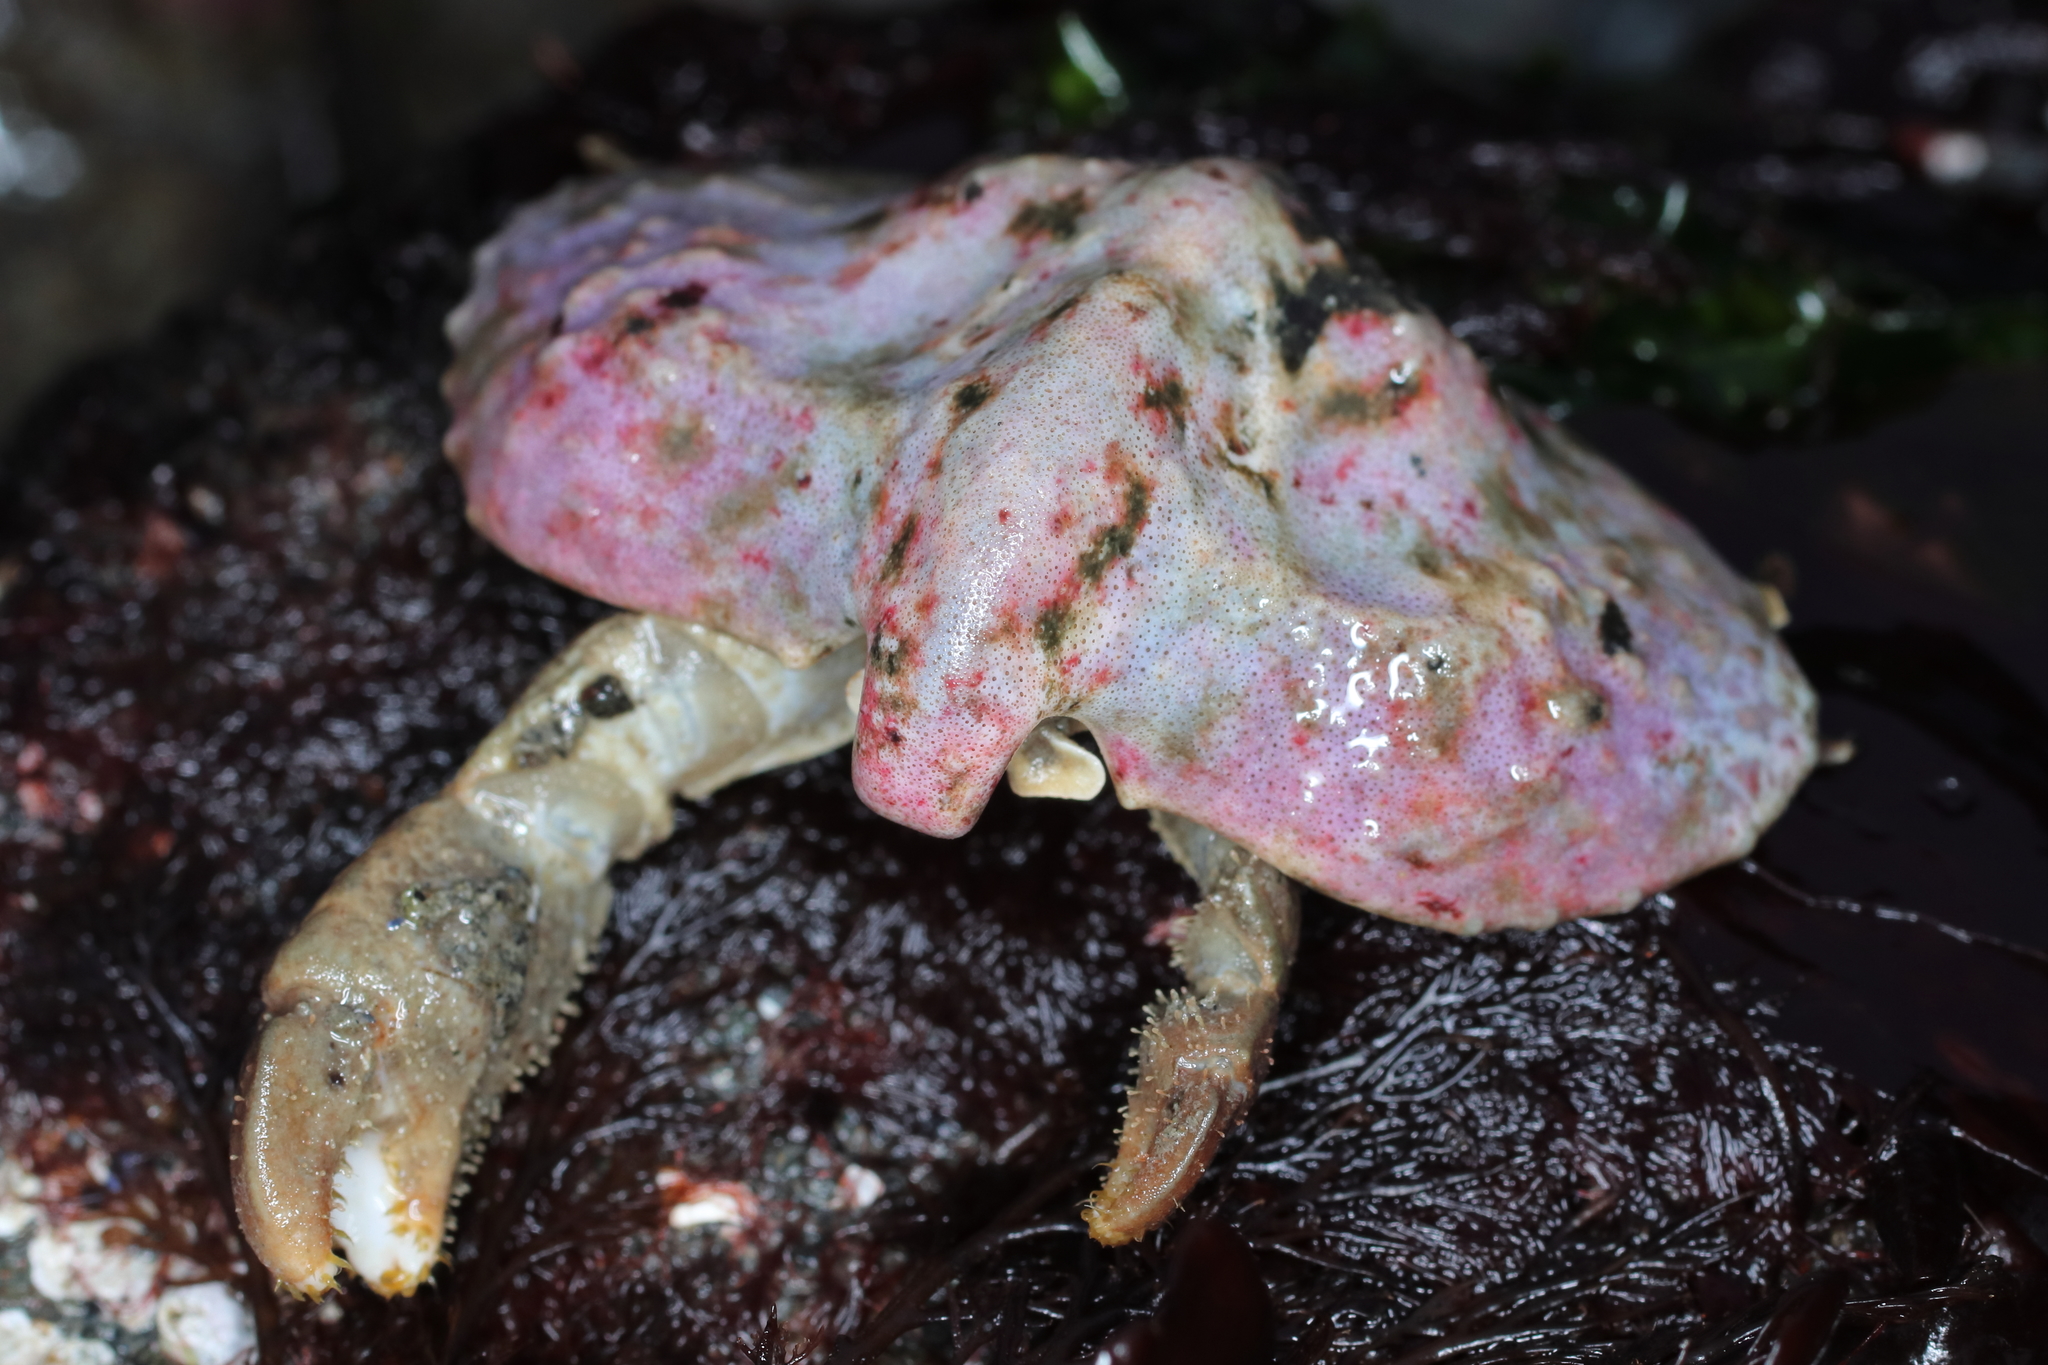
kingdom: Animalia
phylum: Arthropoda
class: Malacostraca
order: Decapoda
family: Lithodidae
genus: Cryptolithodes
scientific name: Cryptolithodes typicus
